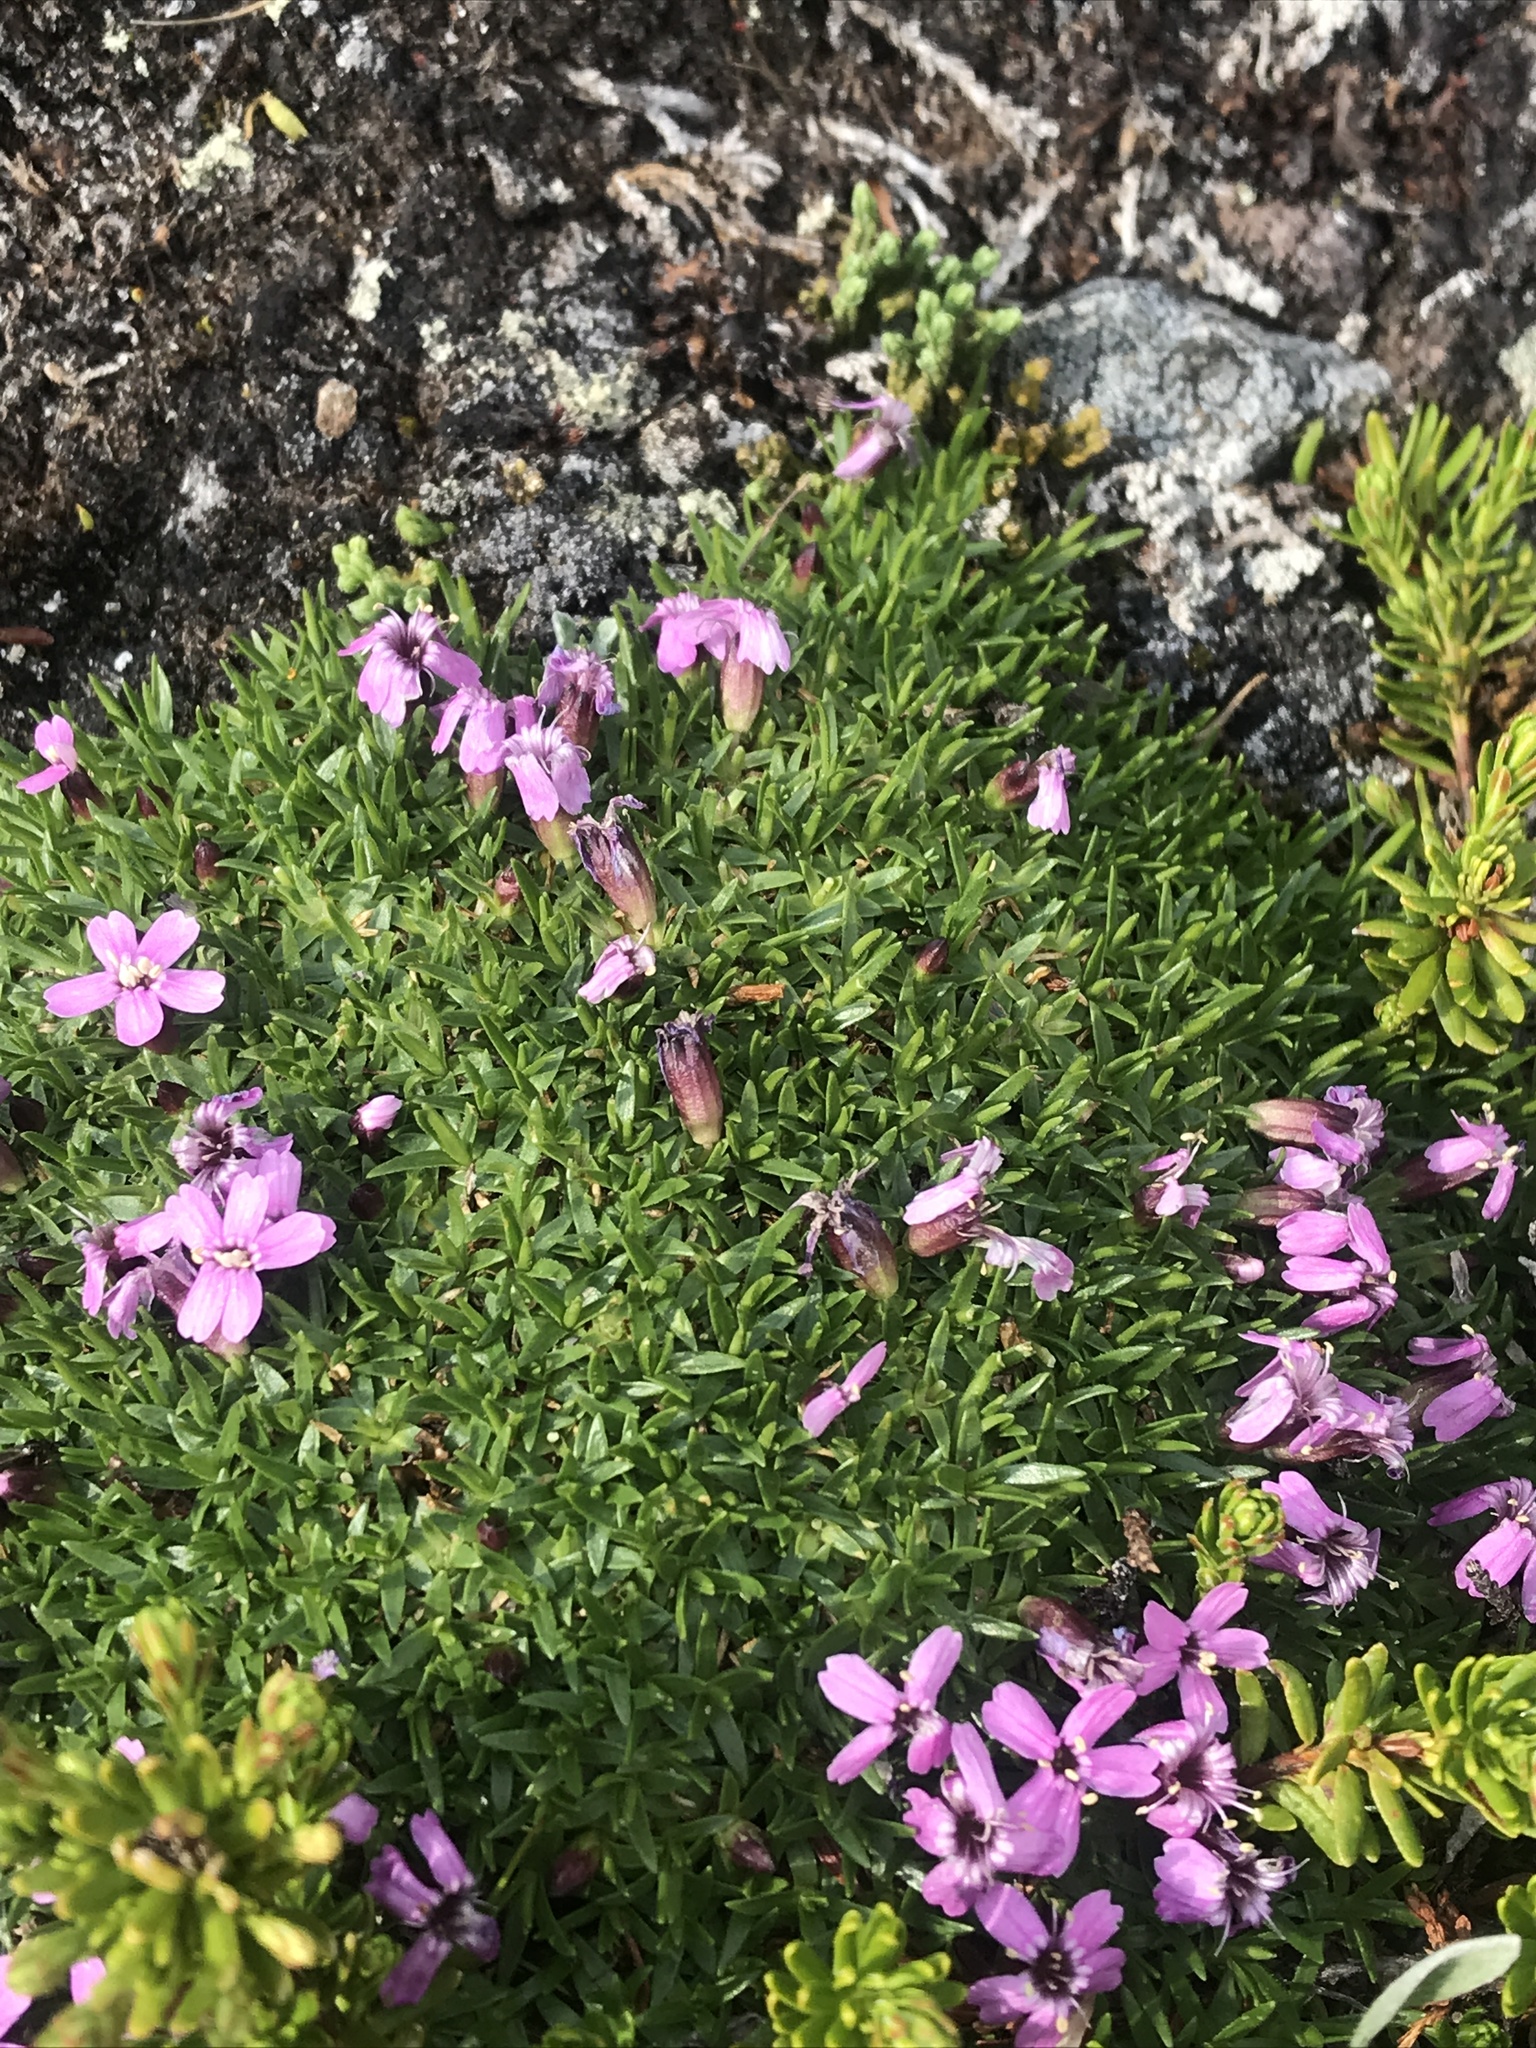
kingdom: Plantae
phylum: Tracheophyta
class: Magnoliopsida
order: Caryophyllales
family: Caryophyllaceae
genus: Silene
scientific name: Silene acaulis
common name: Moss campion
